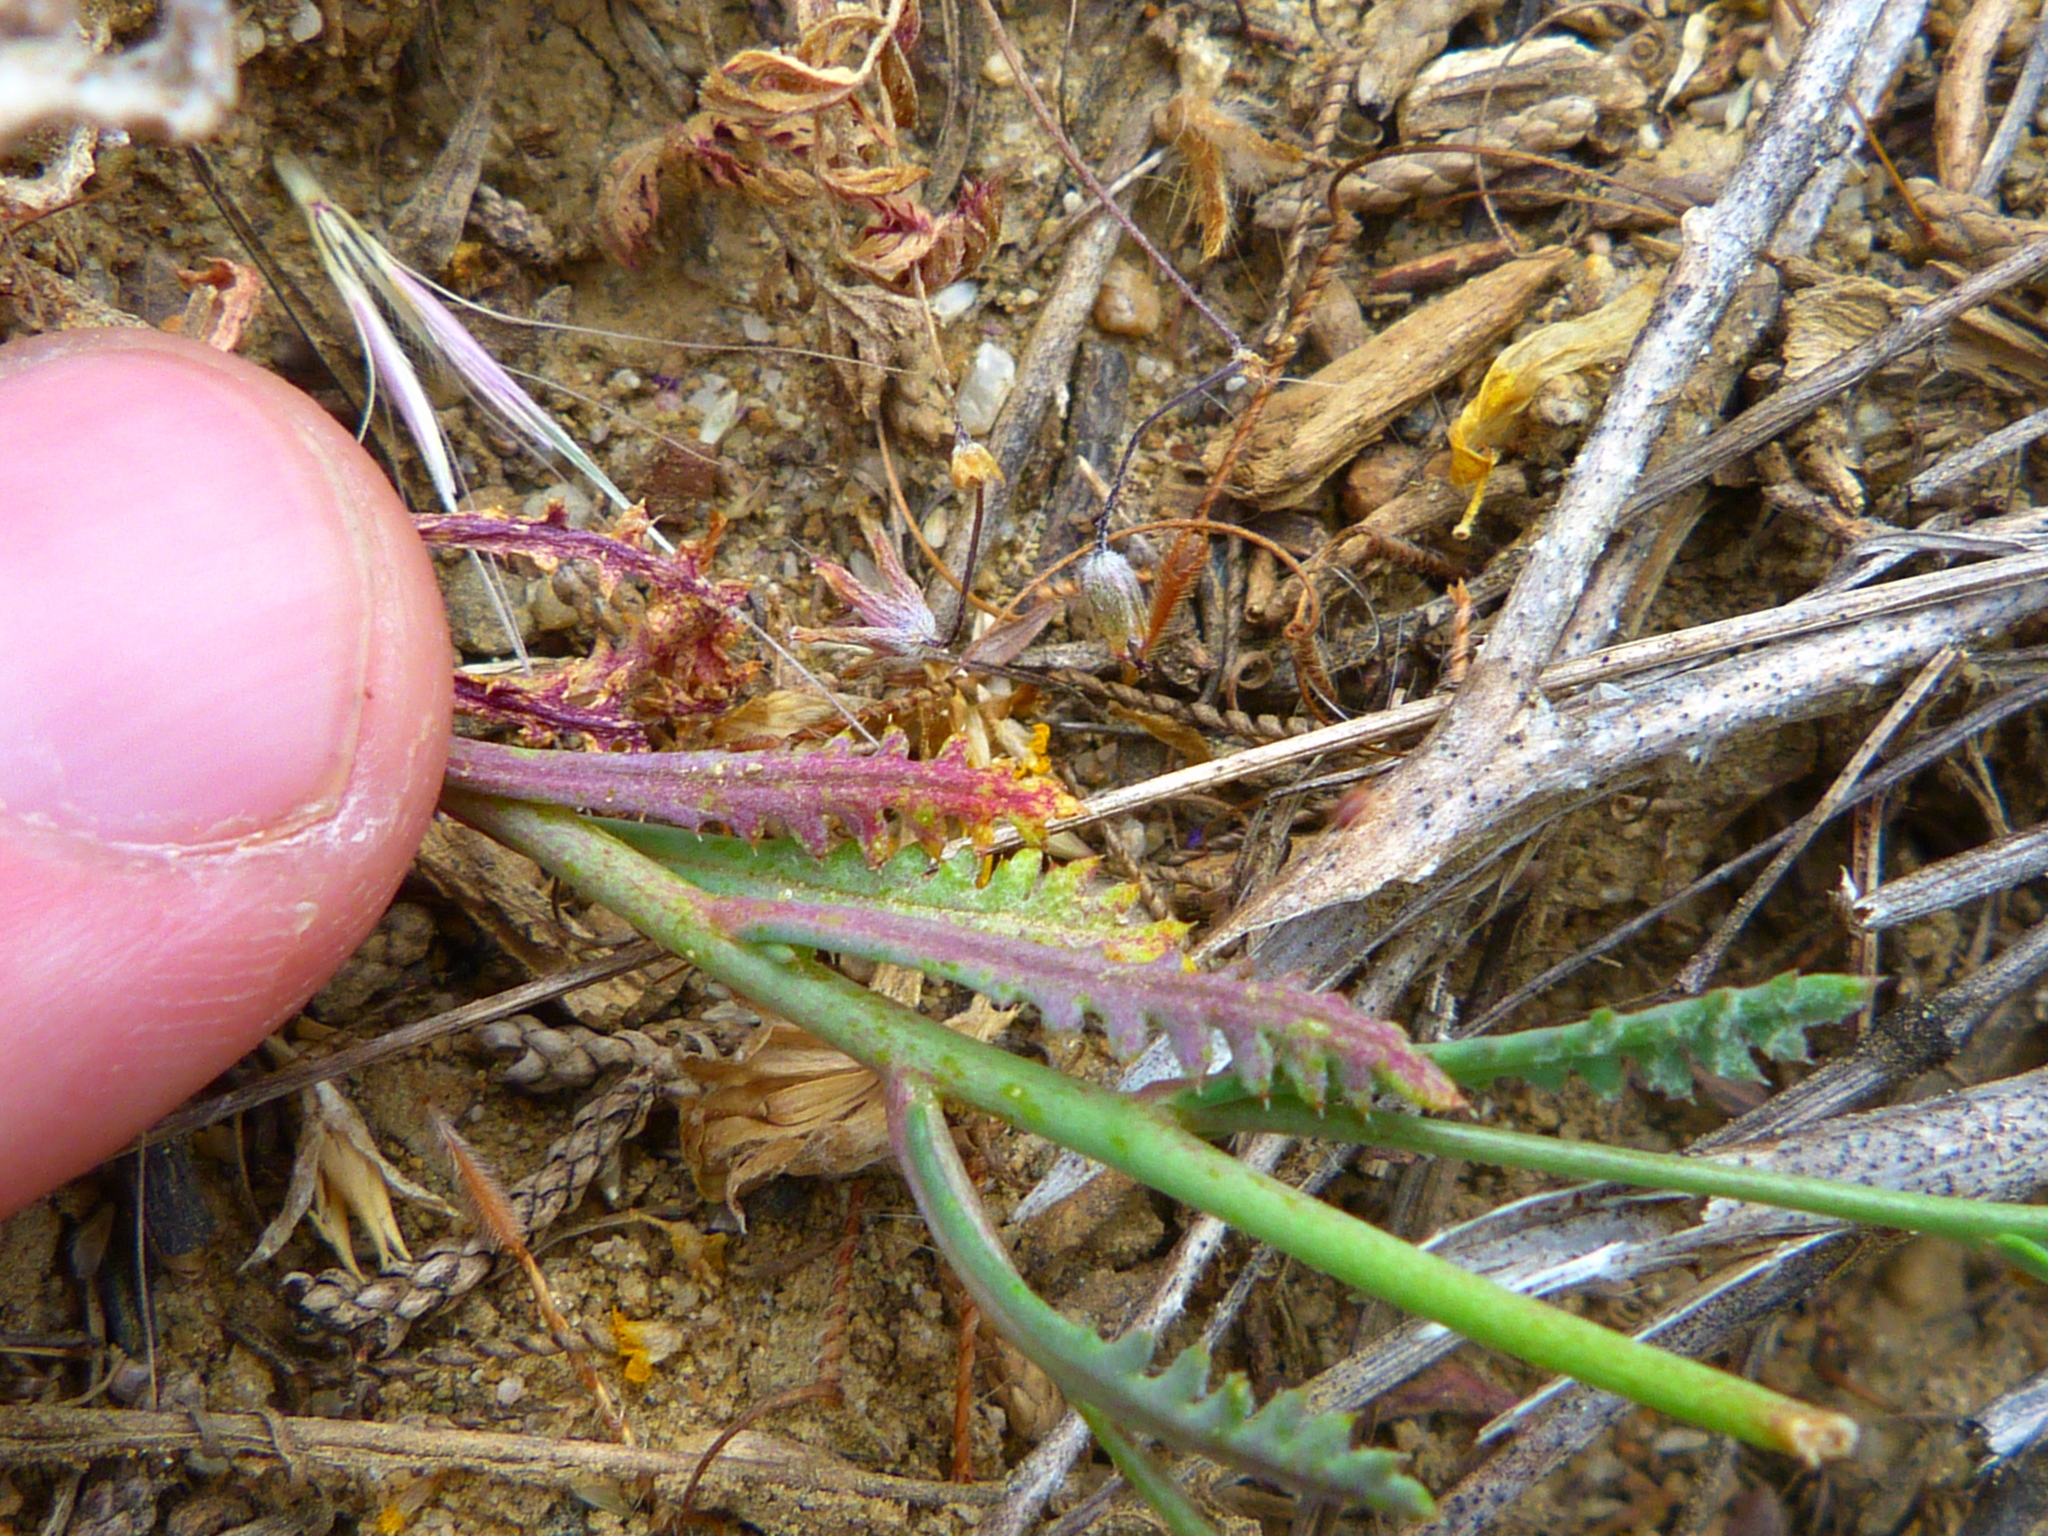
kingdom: Plantae
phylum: Tracheophyta
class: Magnoliopsida
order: Boraginales
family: Hydrophyllaceae
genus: Phacelia
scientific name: Phacelia tanacetifolia
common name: Phacelia
